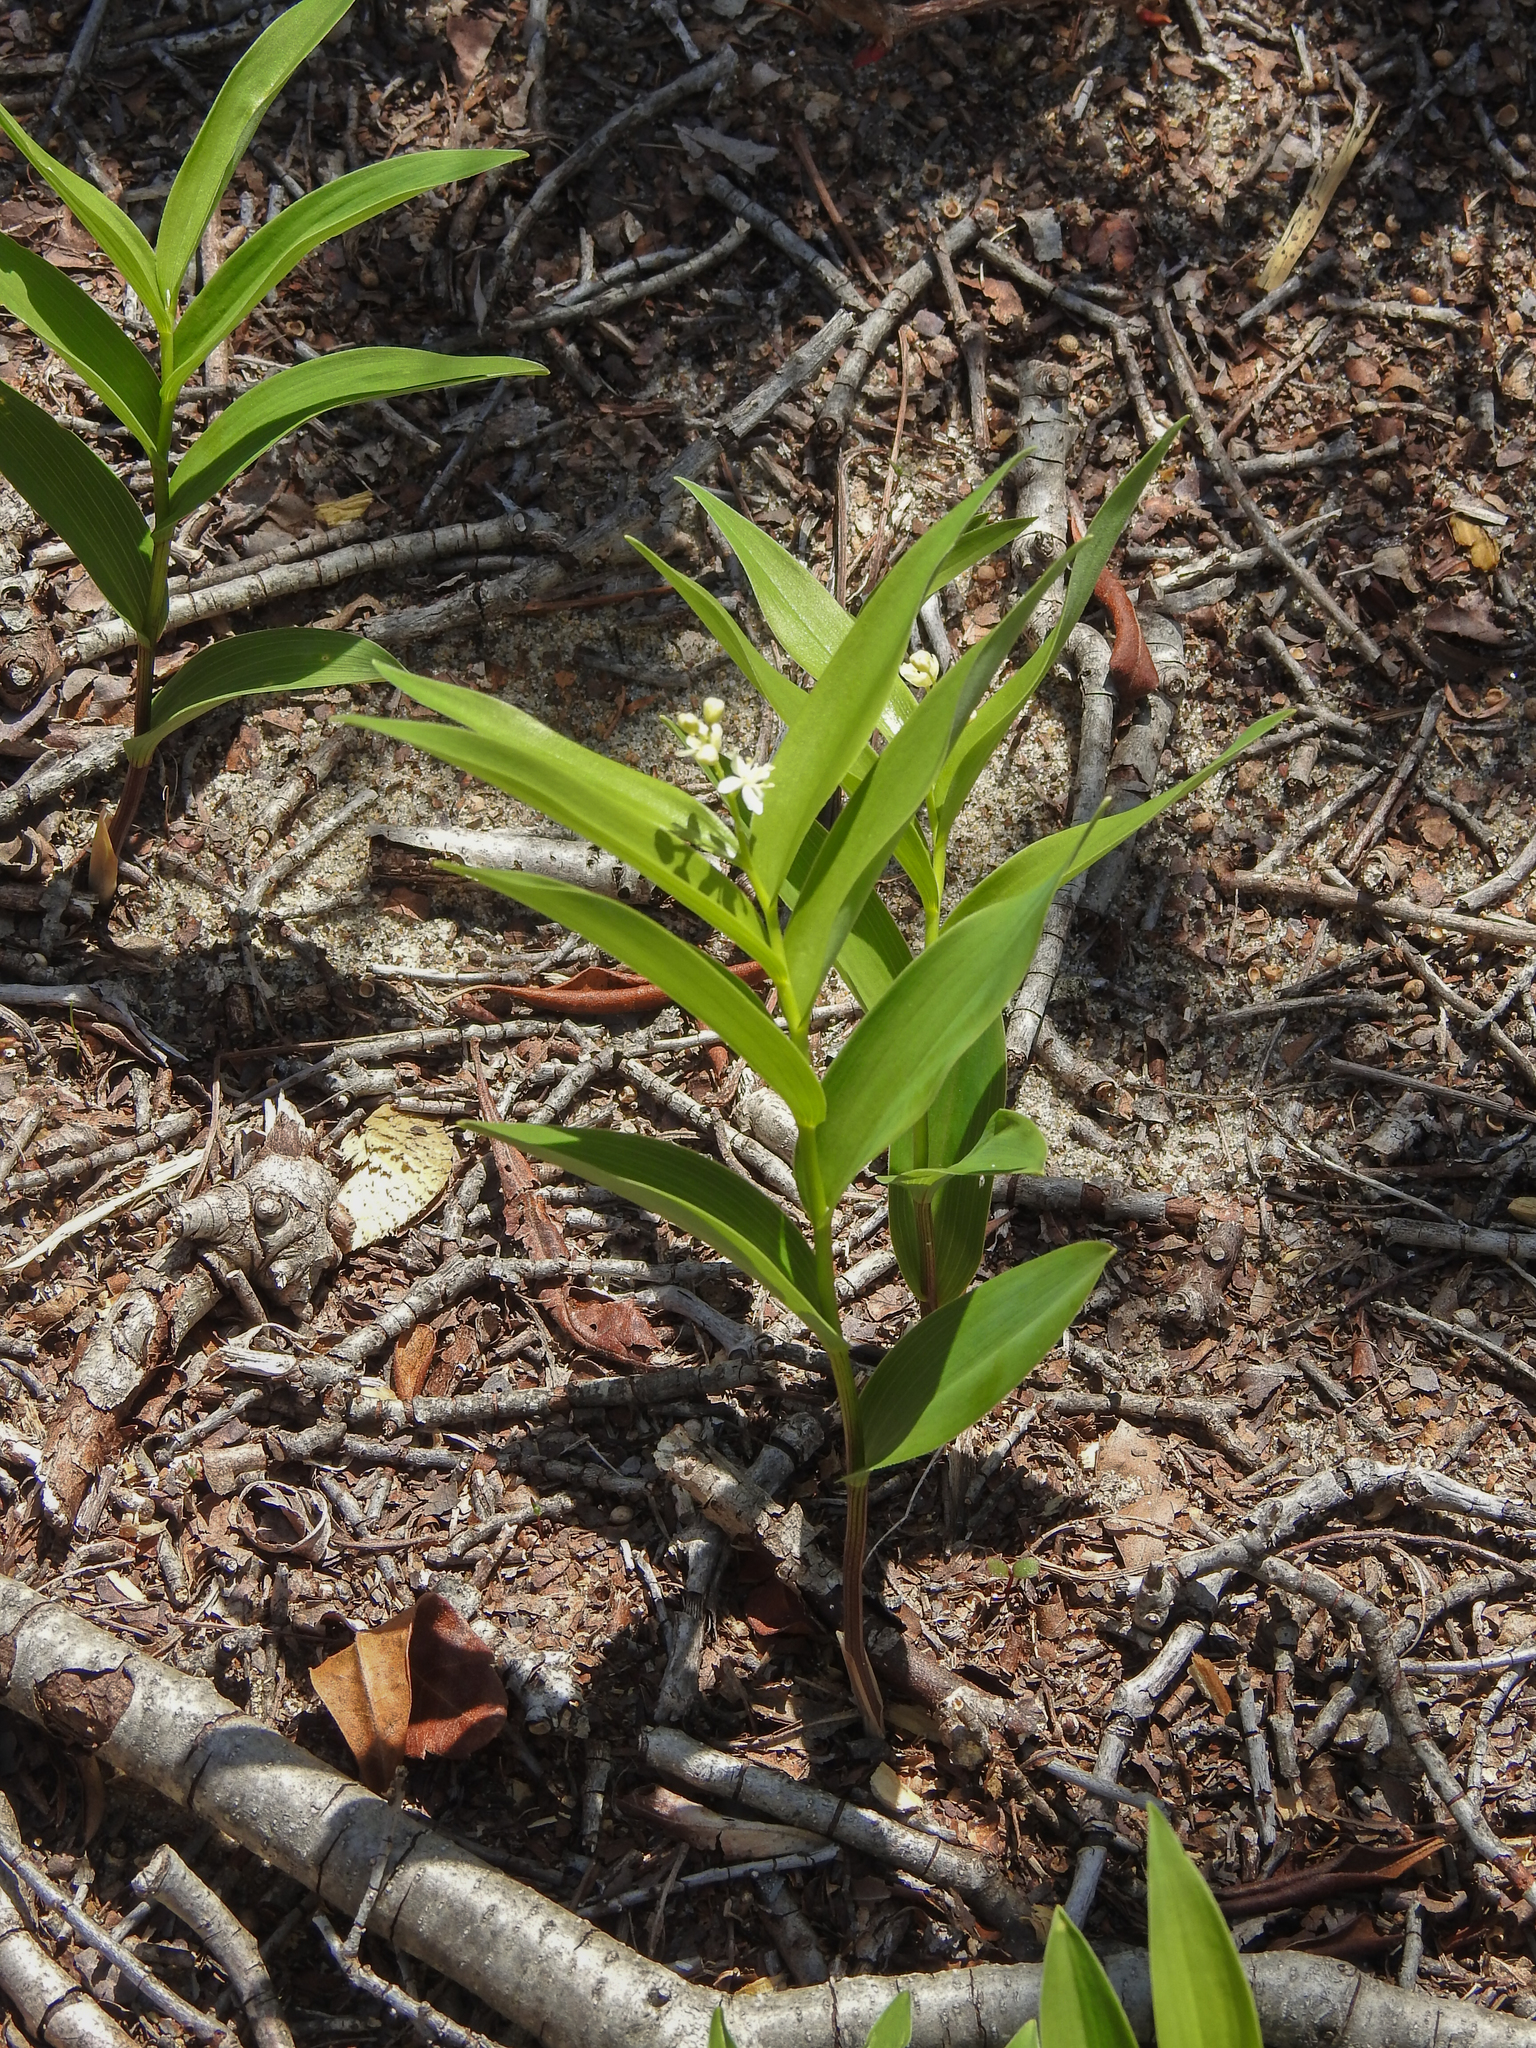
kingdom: Plantae
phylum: Tracheophyta
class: Liliopsida
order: Asparagales
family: Asparagaceae
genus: Maianthemum
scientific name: Maianthemum stellatum
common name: Little false solomon's seal
